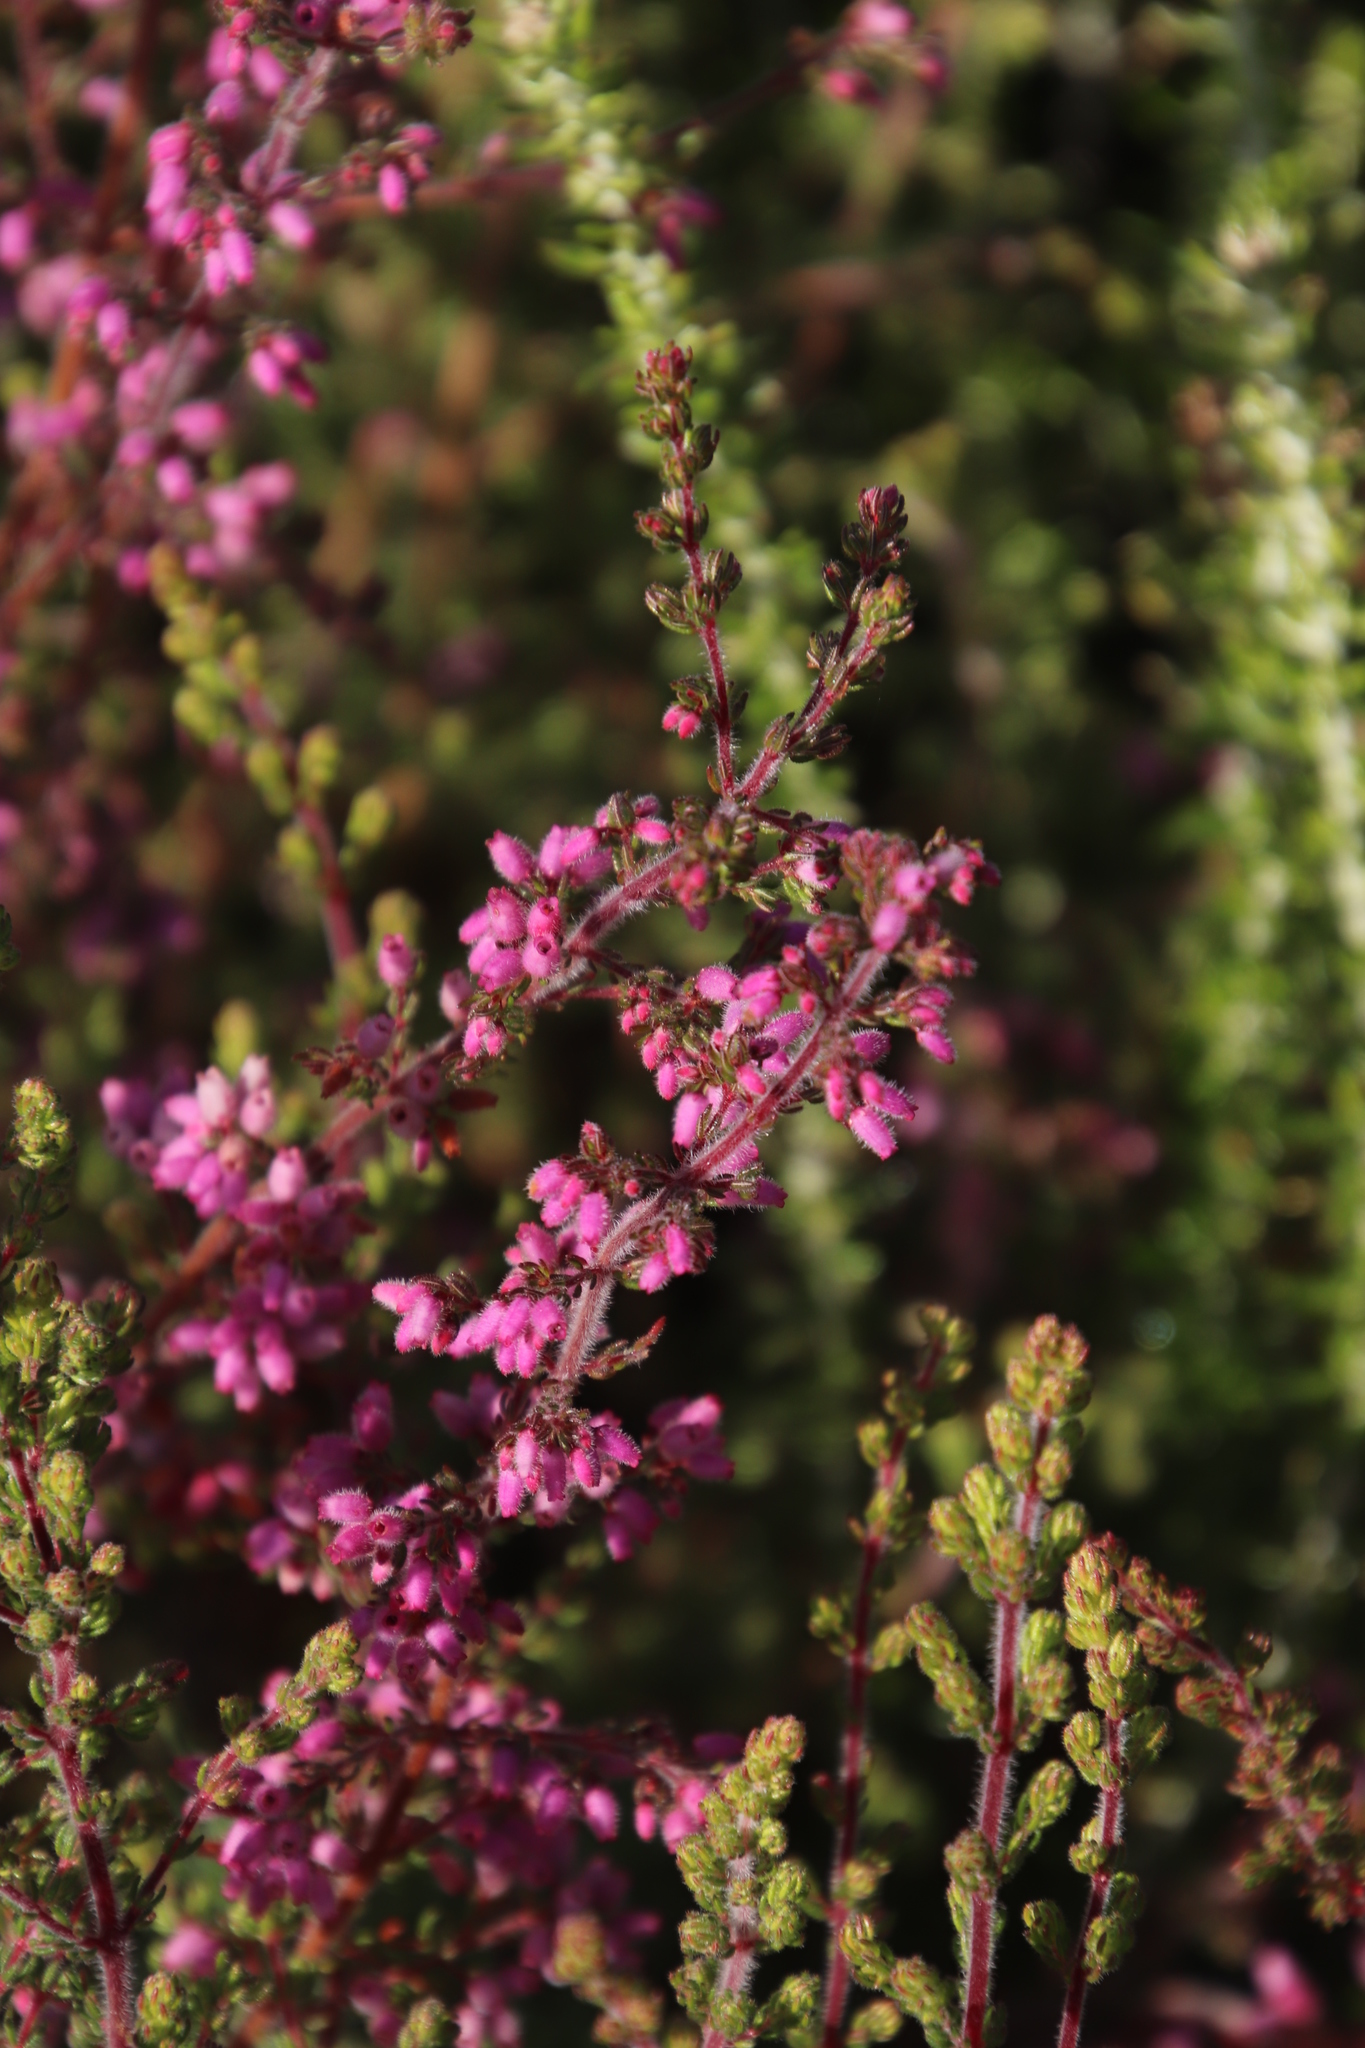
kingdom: Plantae
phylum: Tracheophyta
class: Magnoliopsida
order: Ericales
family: Ericaceae
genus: Erica
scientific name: Erica parviflora
